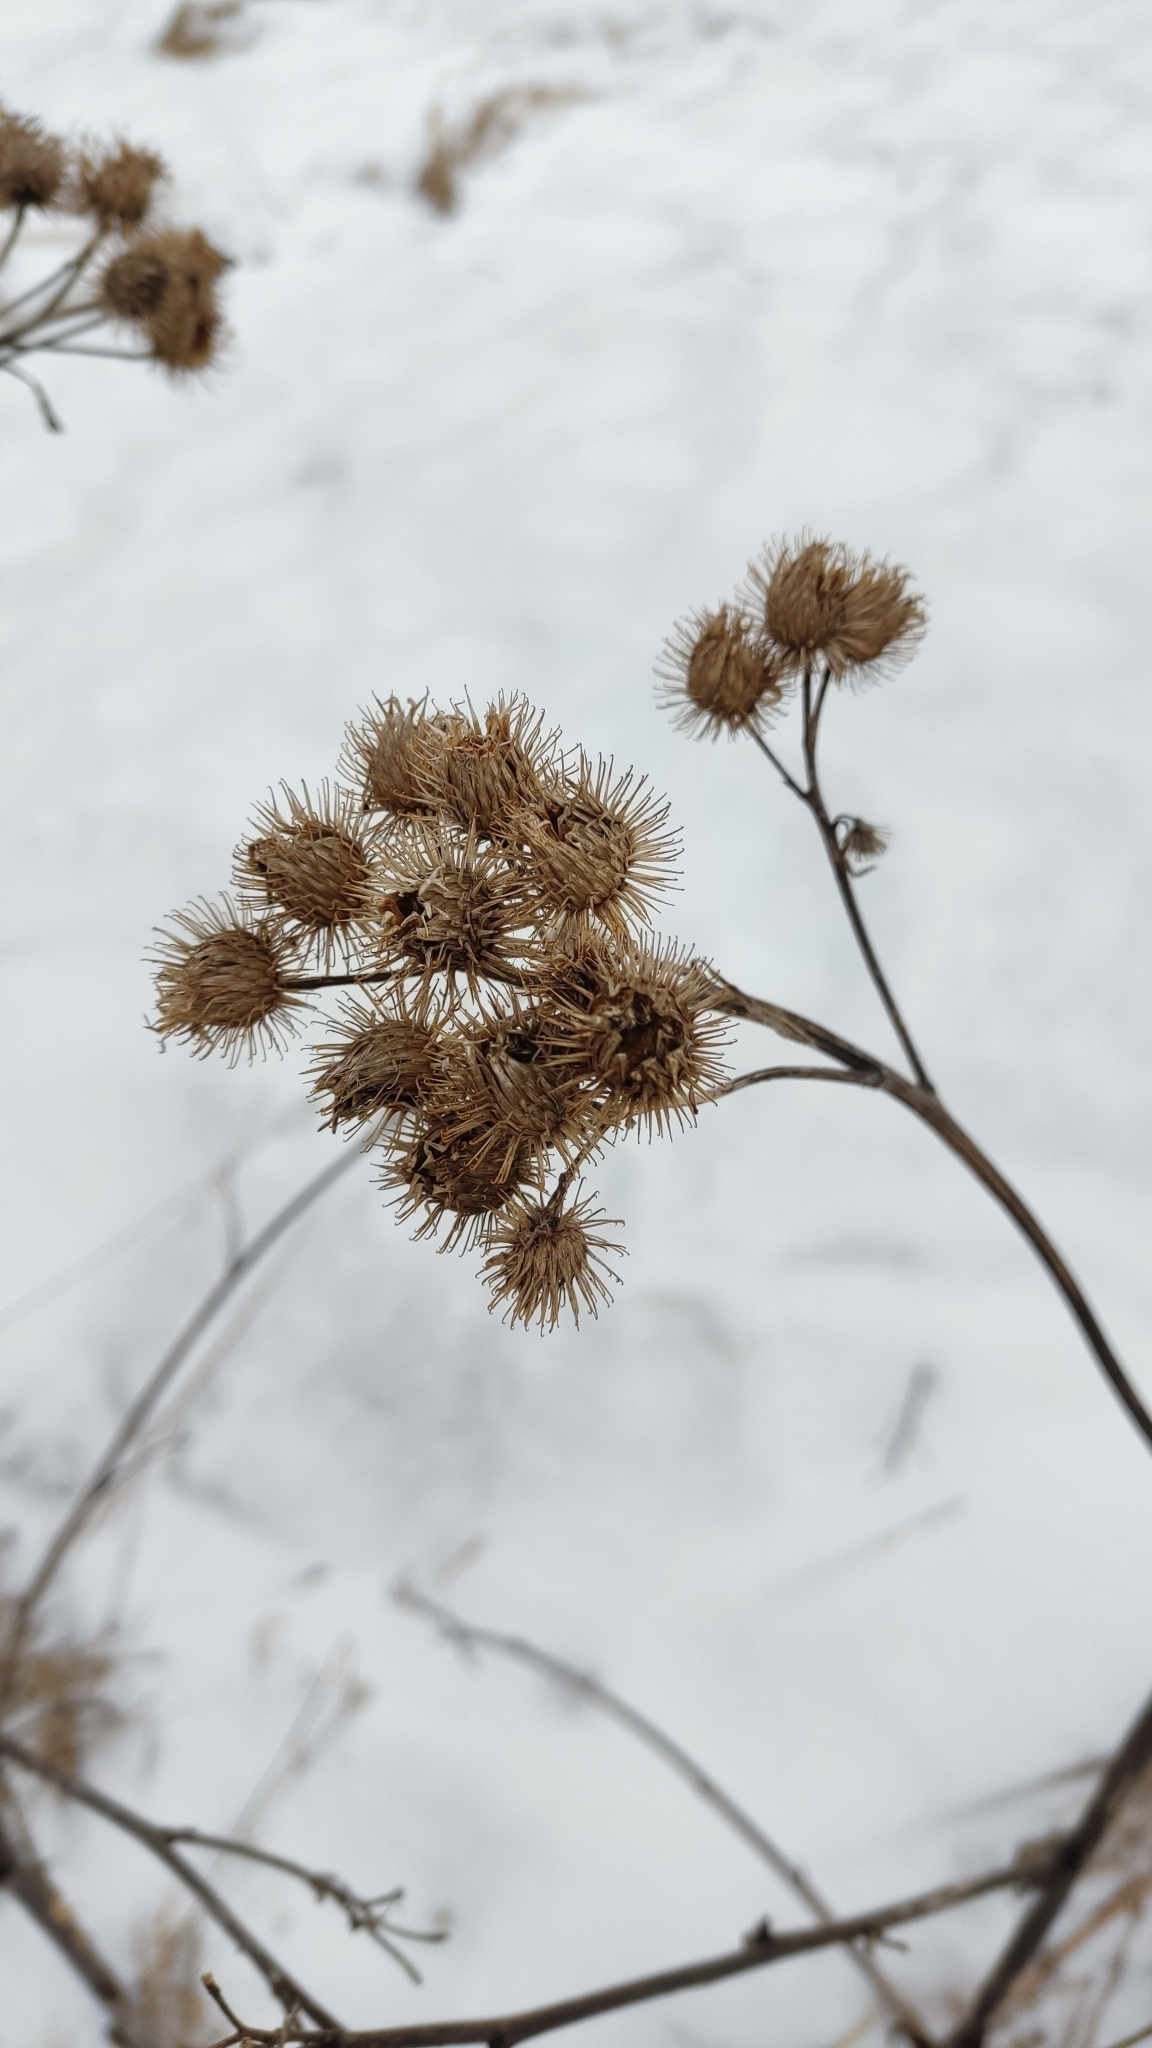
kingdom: Plantae
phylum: Tracheophyta
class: Magnoliopsida
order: Asterales
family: Asteraceae
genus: Arctium
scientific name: Arctium tomentosum
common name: Woolly burdock
